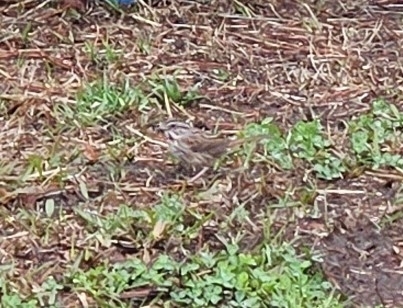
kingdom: Animalia
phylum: Chordata
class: Aves
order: Passeriformes
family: Passerellidae
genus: Melospiza
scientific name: Melospiza melodia
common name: Song sparrow
